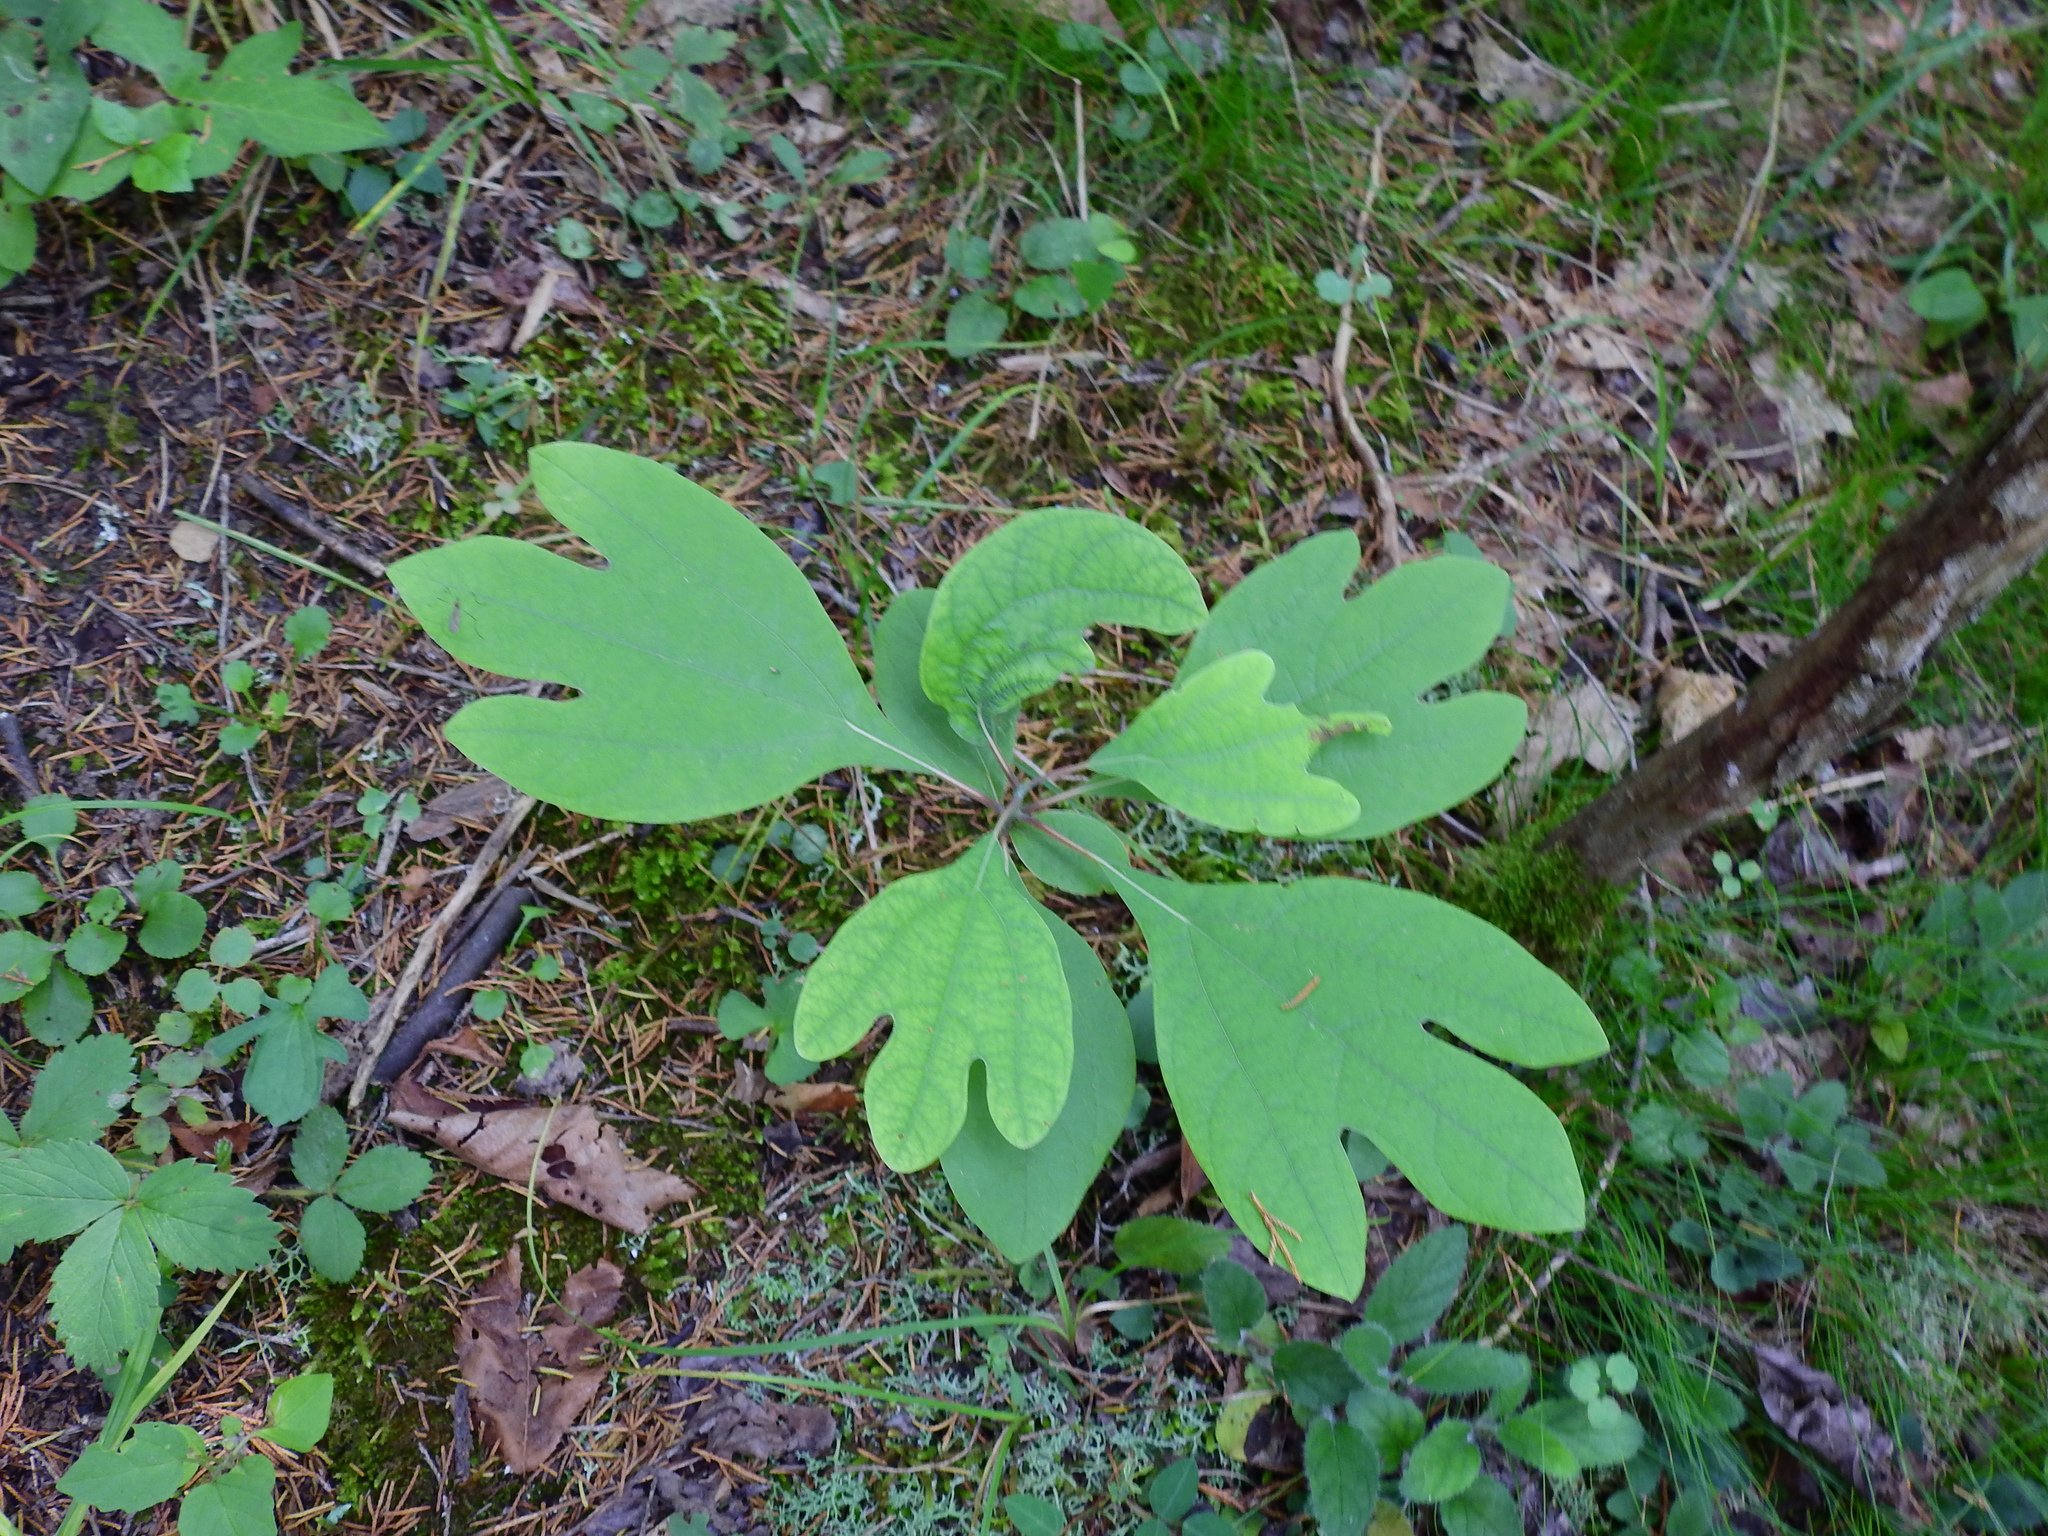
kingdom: Plantae
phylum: Tracheophyta
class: Magnoliopsida
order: Laurales
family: Lauraceae
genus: Sassafras
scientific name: Sassafras albidum
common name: Sassafras
